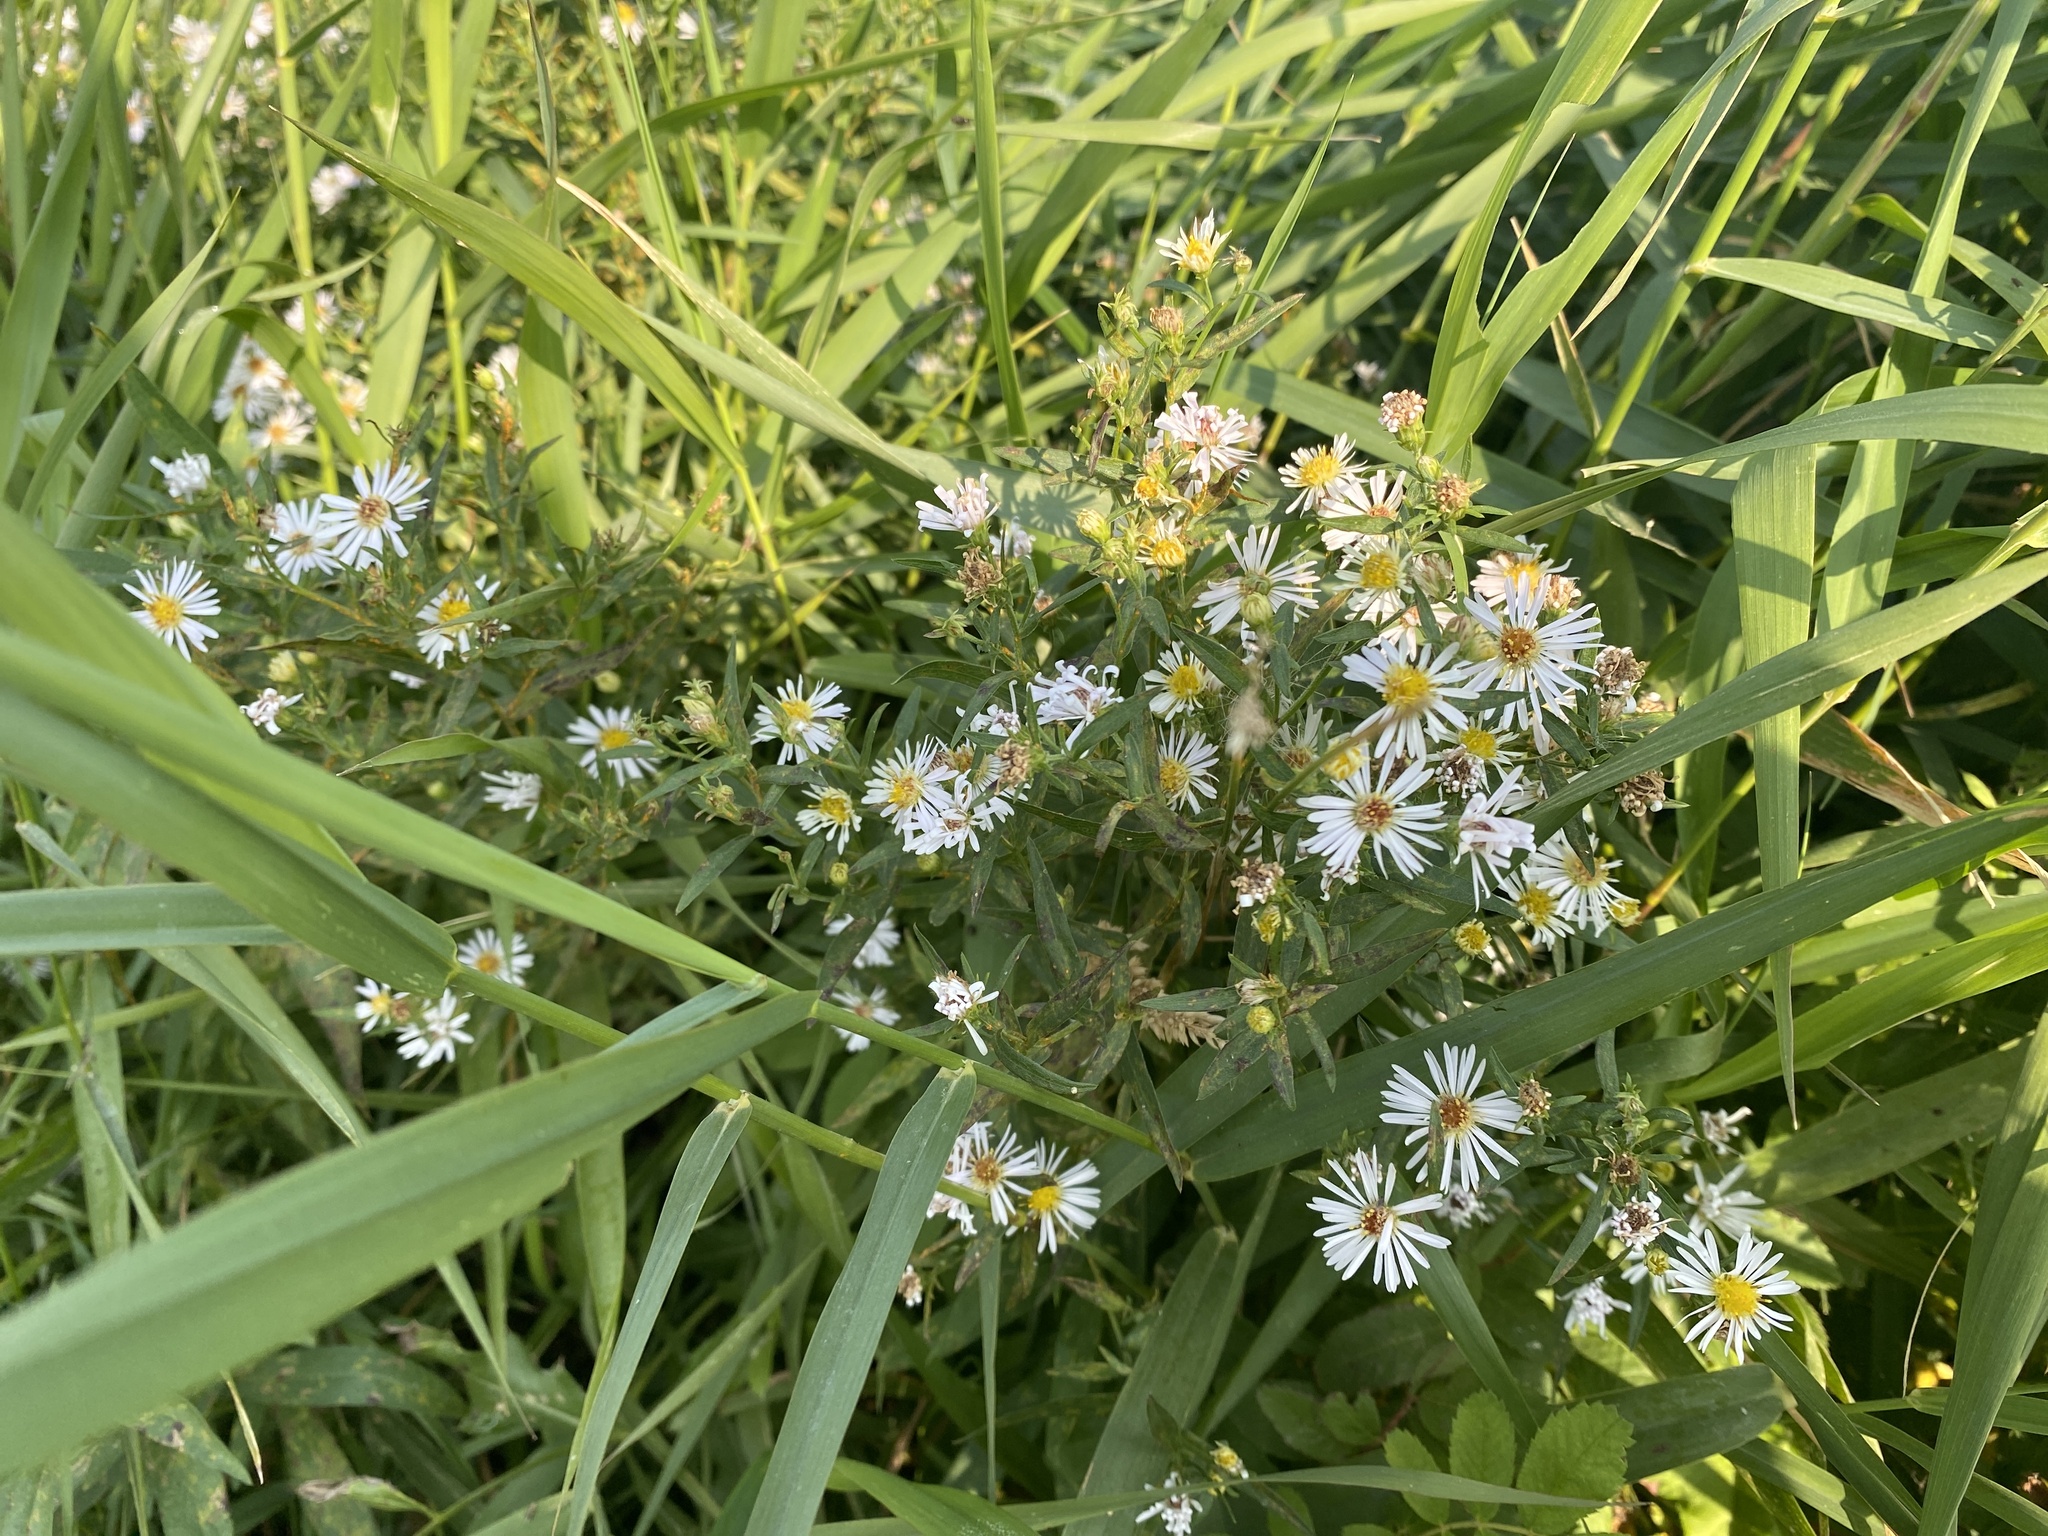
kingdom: Plantae
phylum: Tracheophyta
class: Magnoliopsida
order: Asterales
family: Asteraceae
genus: Symphyotrichum
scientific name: Symphyotrichum lanceolatum
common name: Panicled aster
